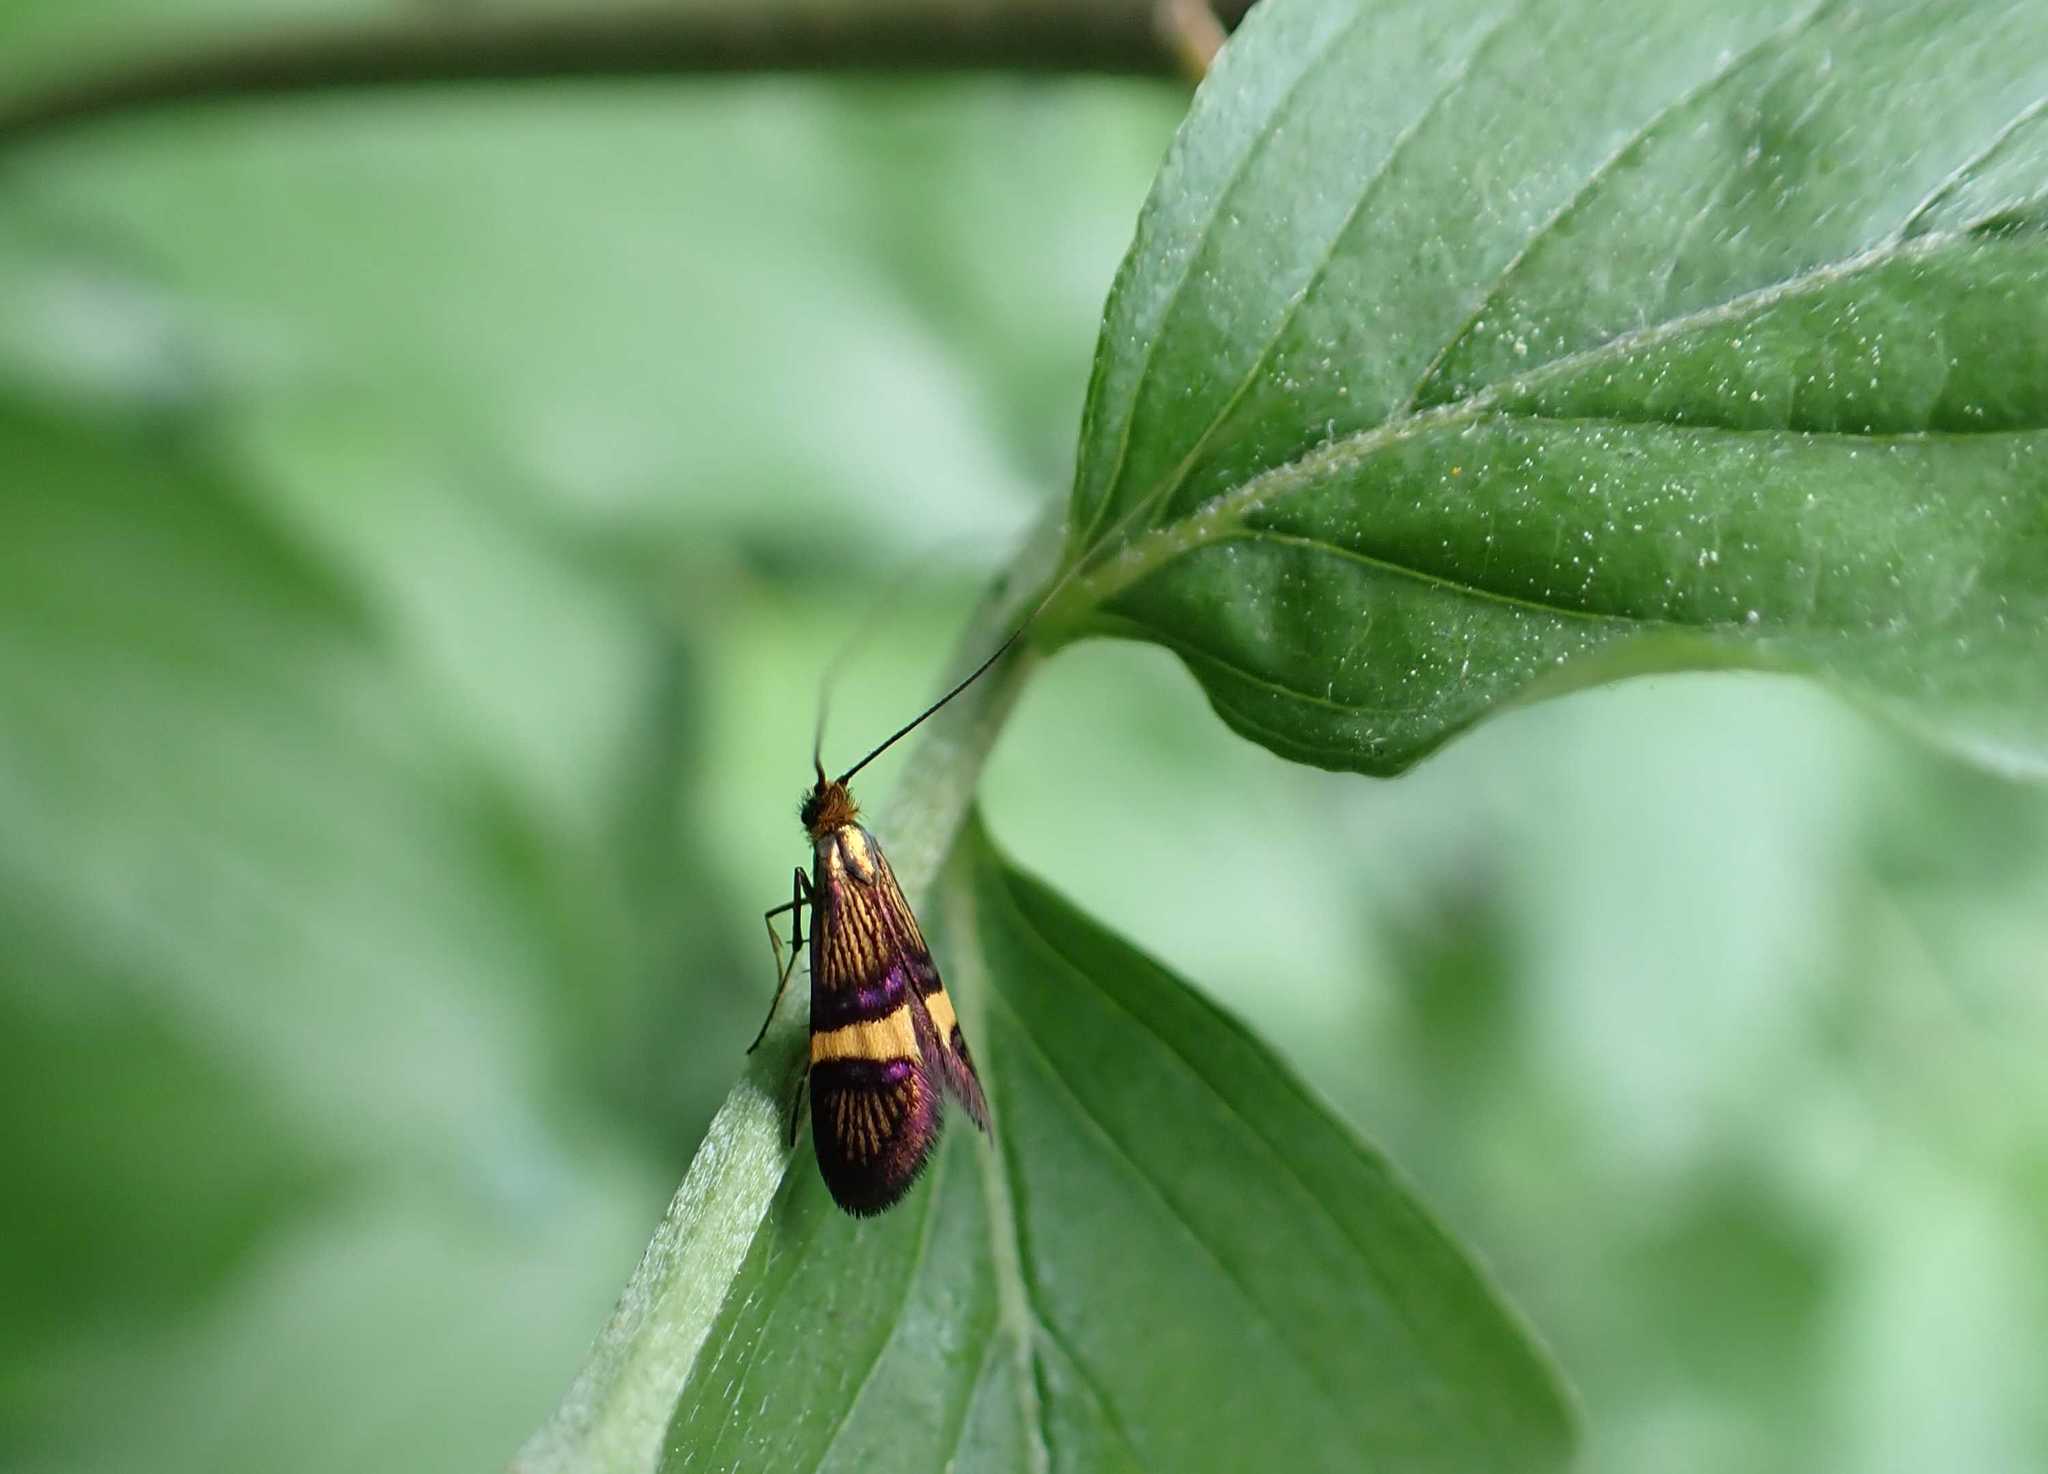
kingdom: Animalia
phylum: Arthropoda
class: Insecta
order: Lepidoptera
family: Adelidae
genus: Adela
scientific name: Adela croesella
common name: Small barred long-horn
